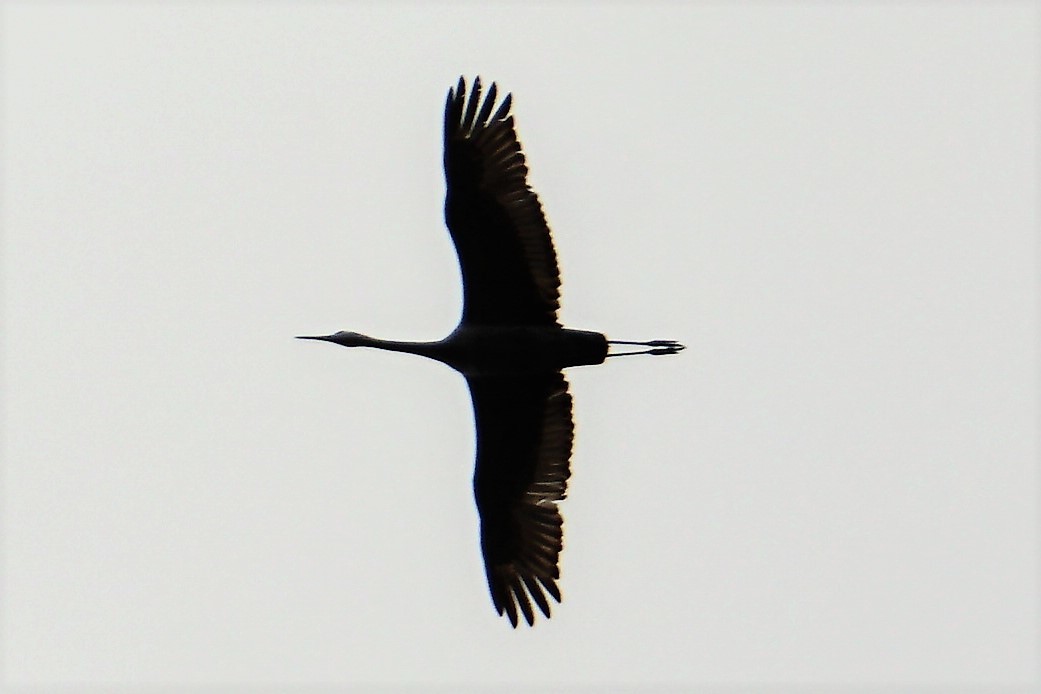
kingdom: Animalia
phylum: Chordata
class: Aves
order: Gruiformes
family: Gruidae
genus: Grus
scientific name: Grus canadensis
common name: Sandhill crane
